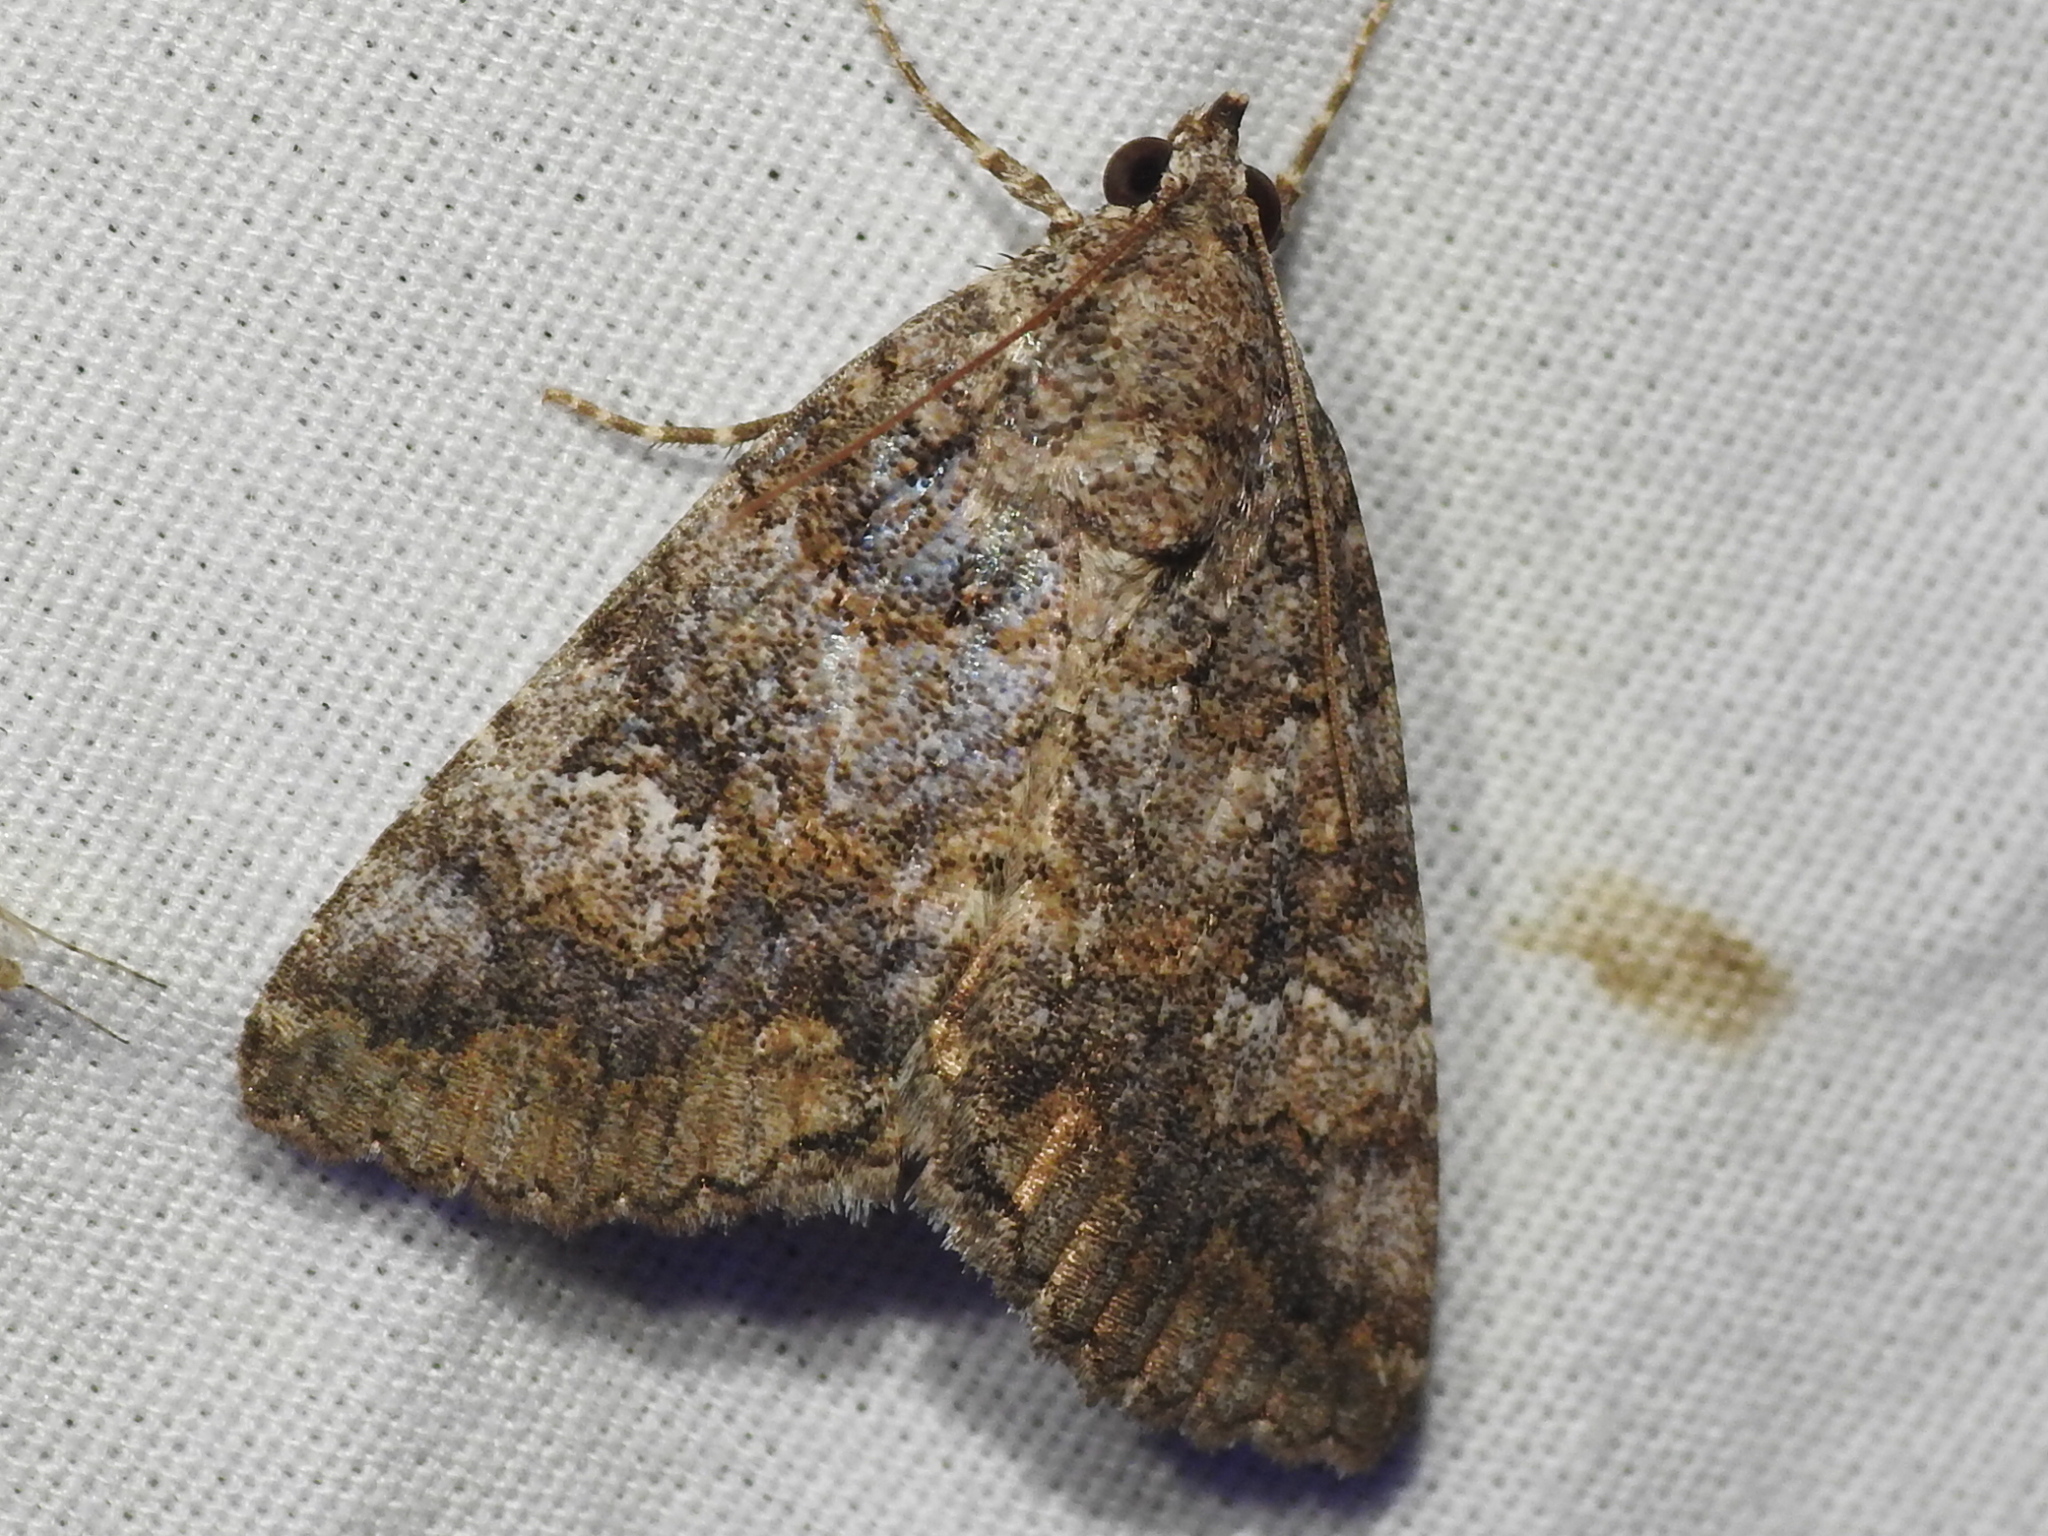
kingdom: Animalia
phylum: Arthropoda
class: Insecta
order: Lepidoptera
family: Erebidae
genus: Eubolina
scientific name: Eubolina impartialis
